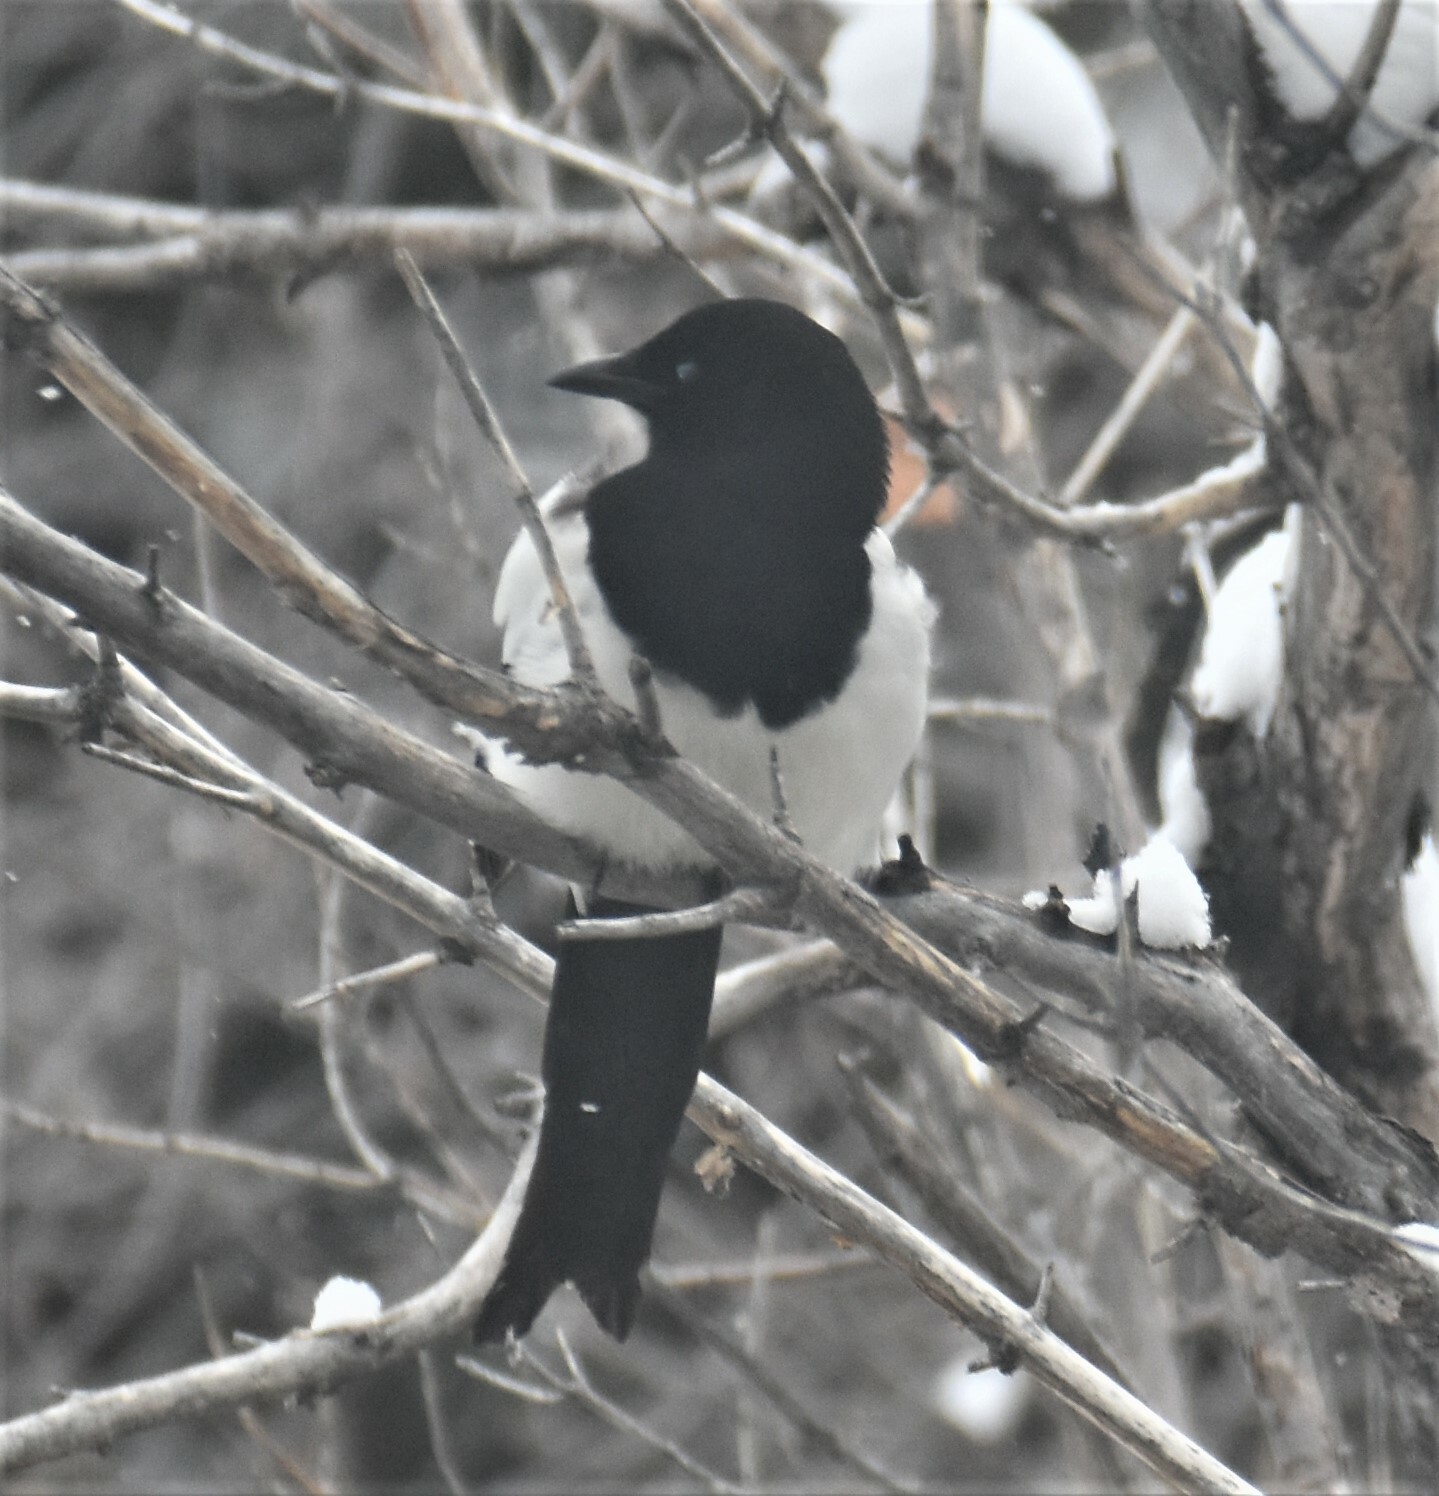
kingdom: Animalia
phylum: Chordata
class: Aves
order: Passeriformes
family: Corvidae
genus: Pica
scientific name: Pica hudsonia
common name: Black-billed magpie
